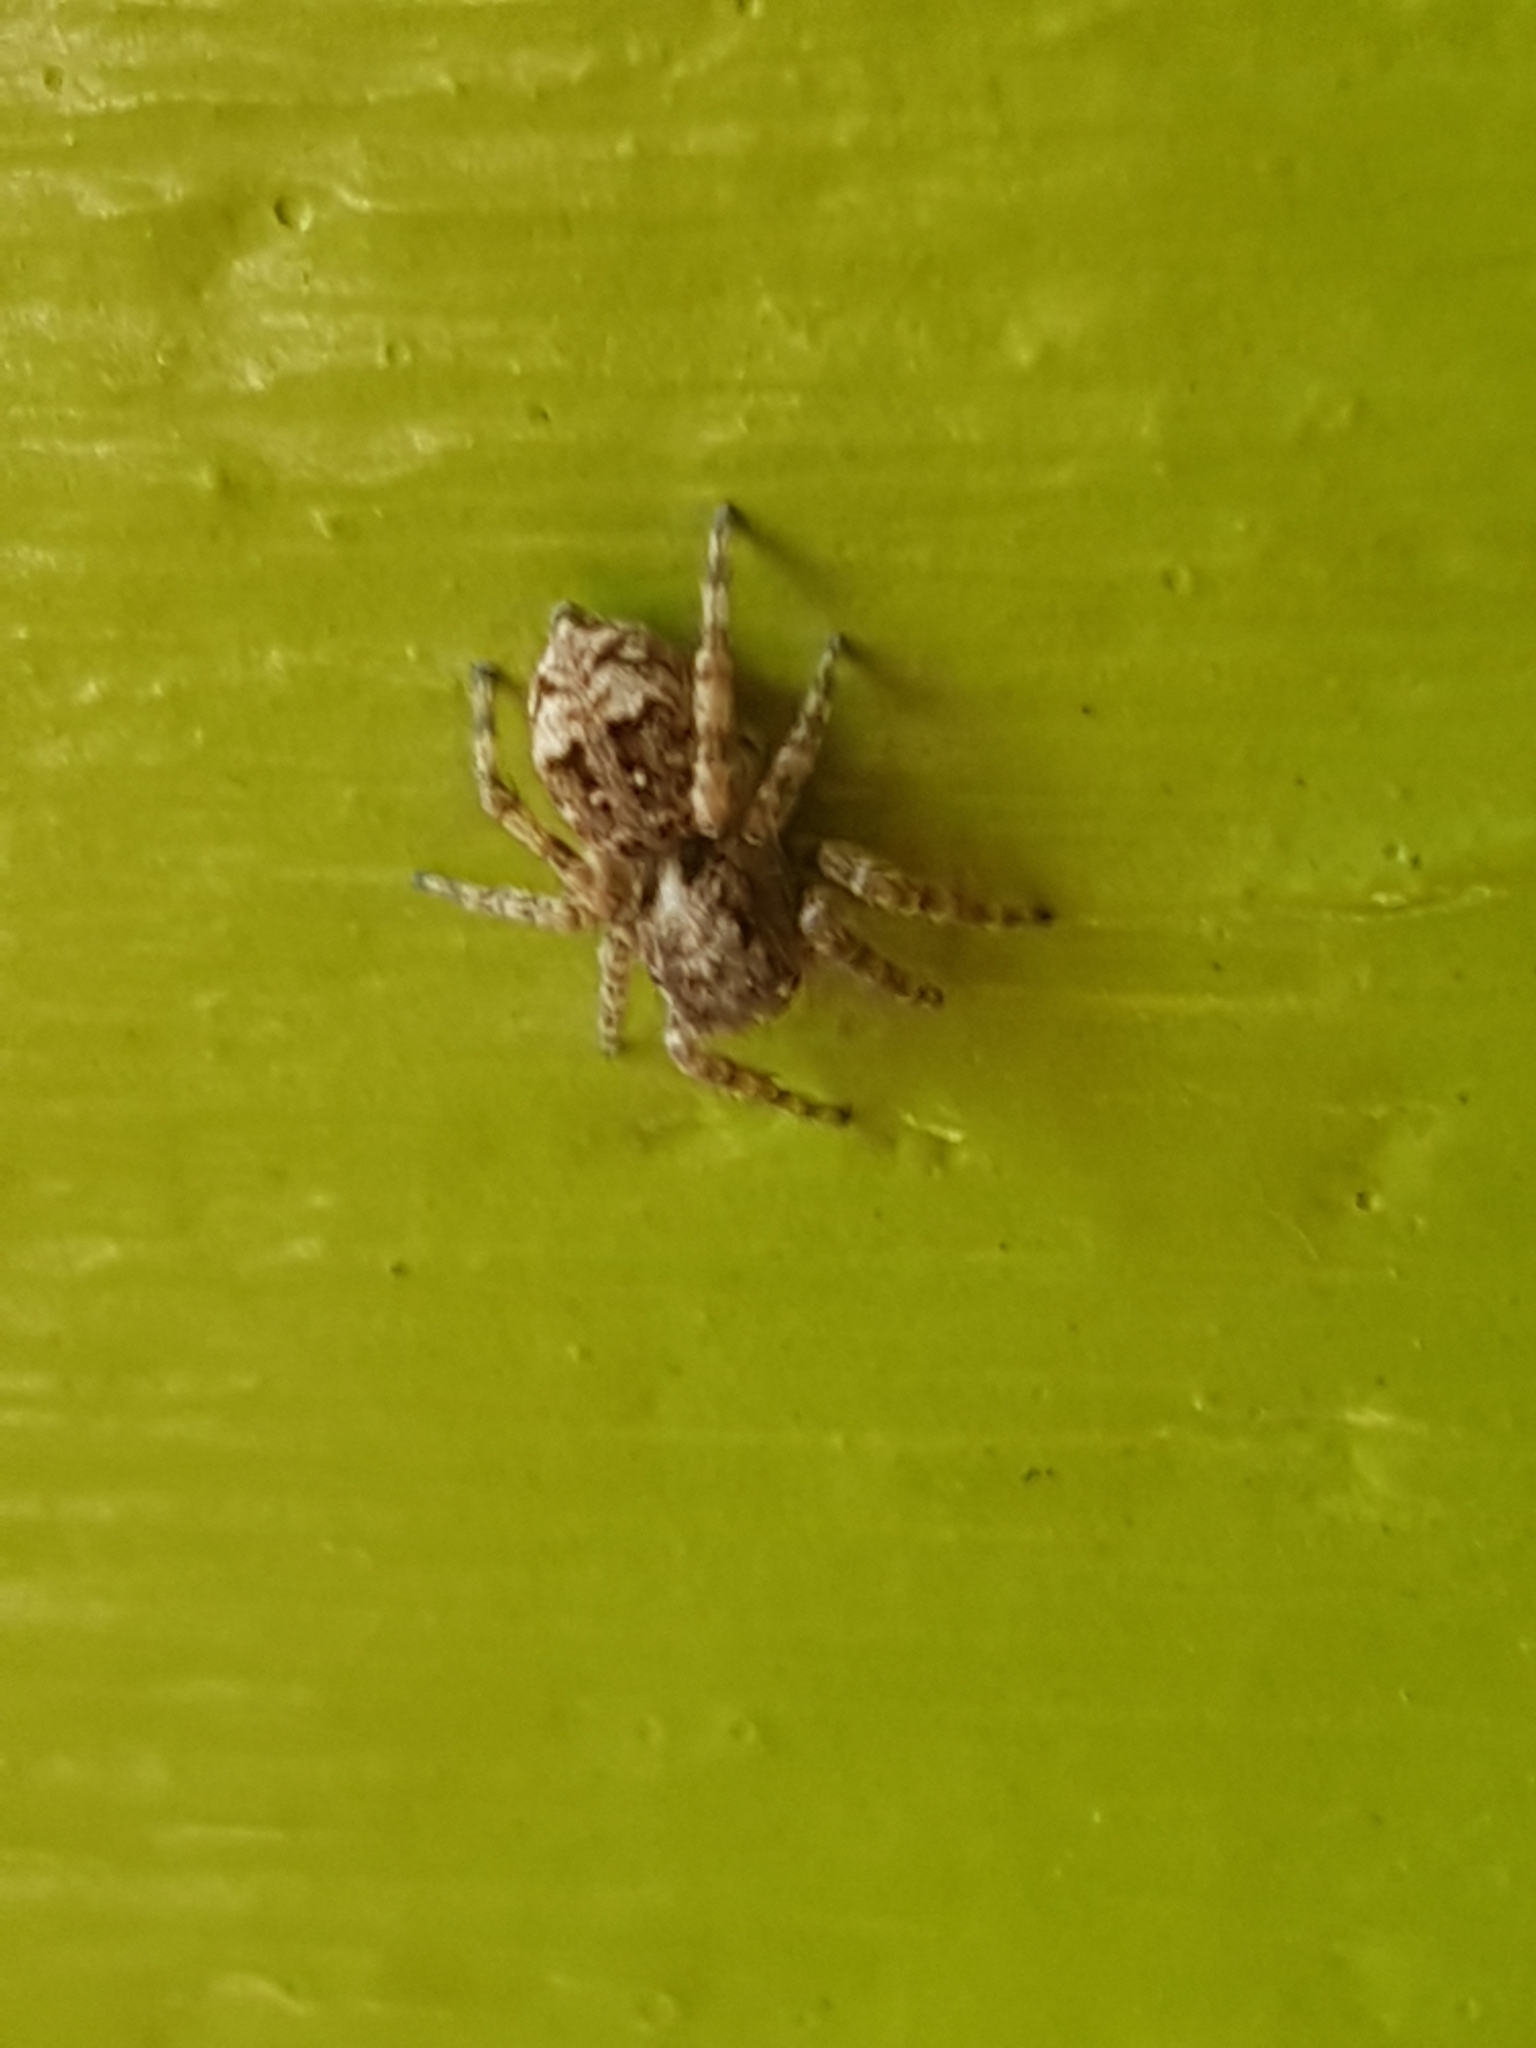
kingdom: Animalia
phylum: Arthropoda
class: Arachnida
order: Araneae
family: Salticidae
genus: Attulus
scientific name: Attulus fasciger
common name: Asiatic wall jumping spider
